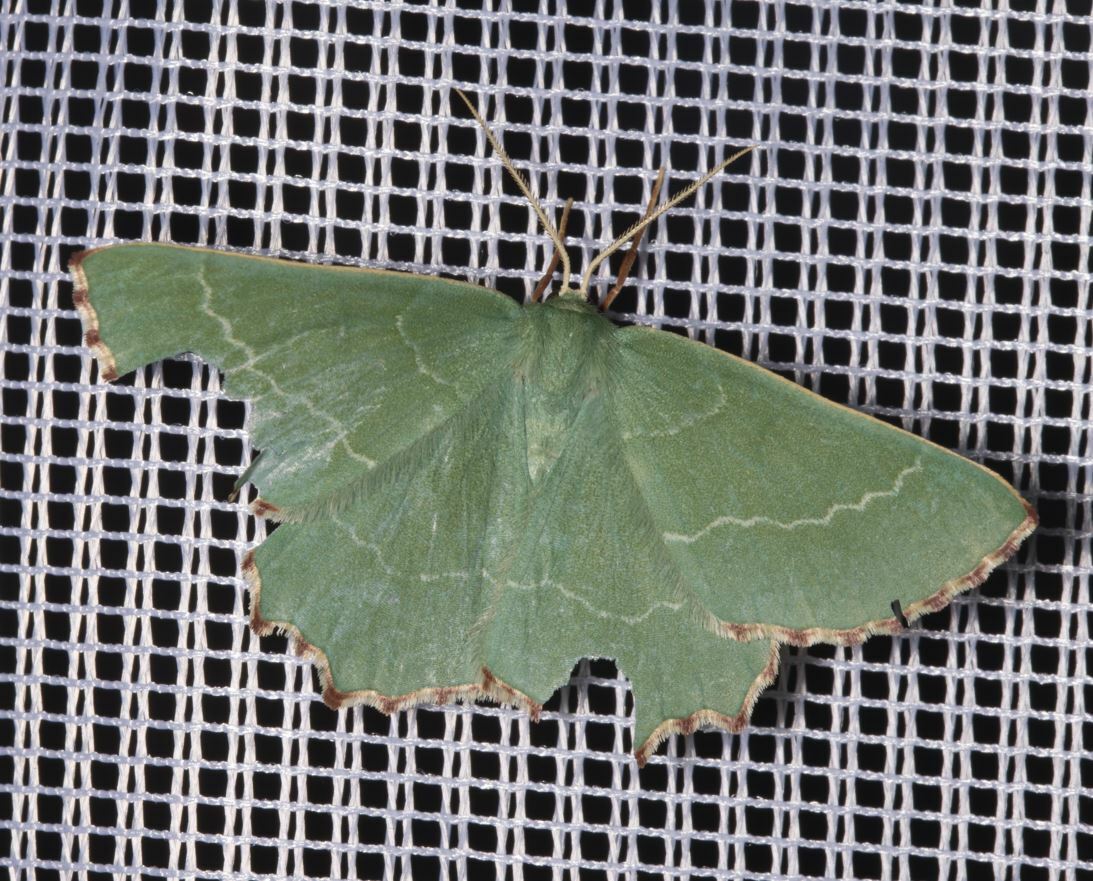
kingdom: Animalia
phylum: Arthropoda
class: Insecta
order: Lepidoptera
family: Geometridae
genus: Thalera
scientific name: Thalera fimbrialis
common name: Sussex emerald
